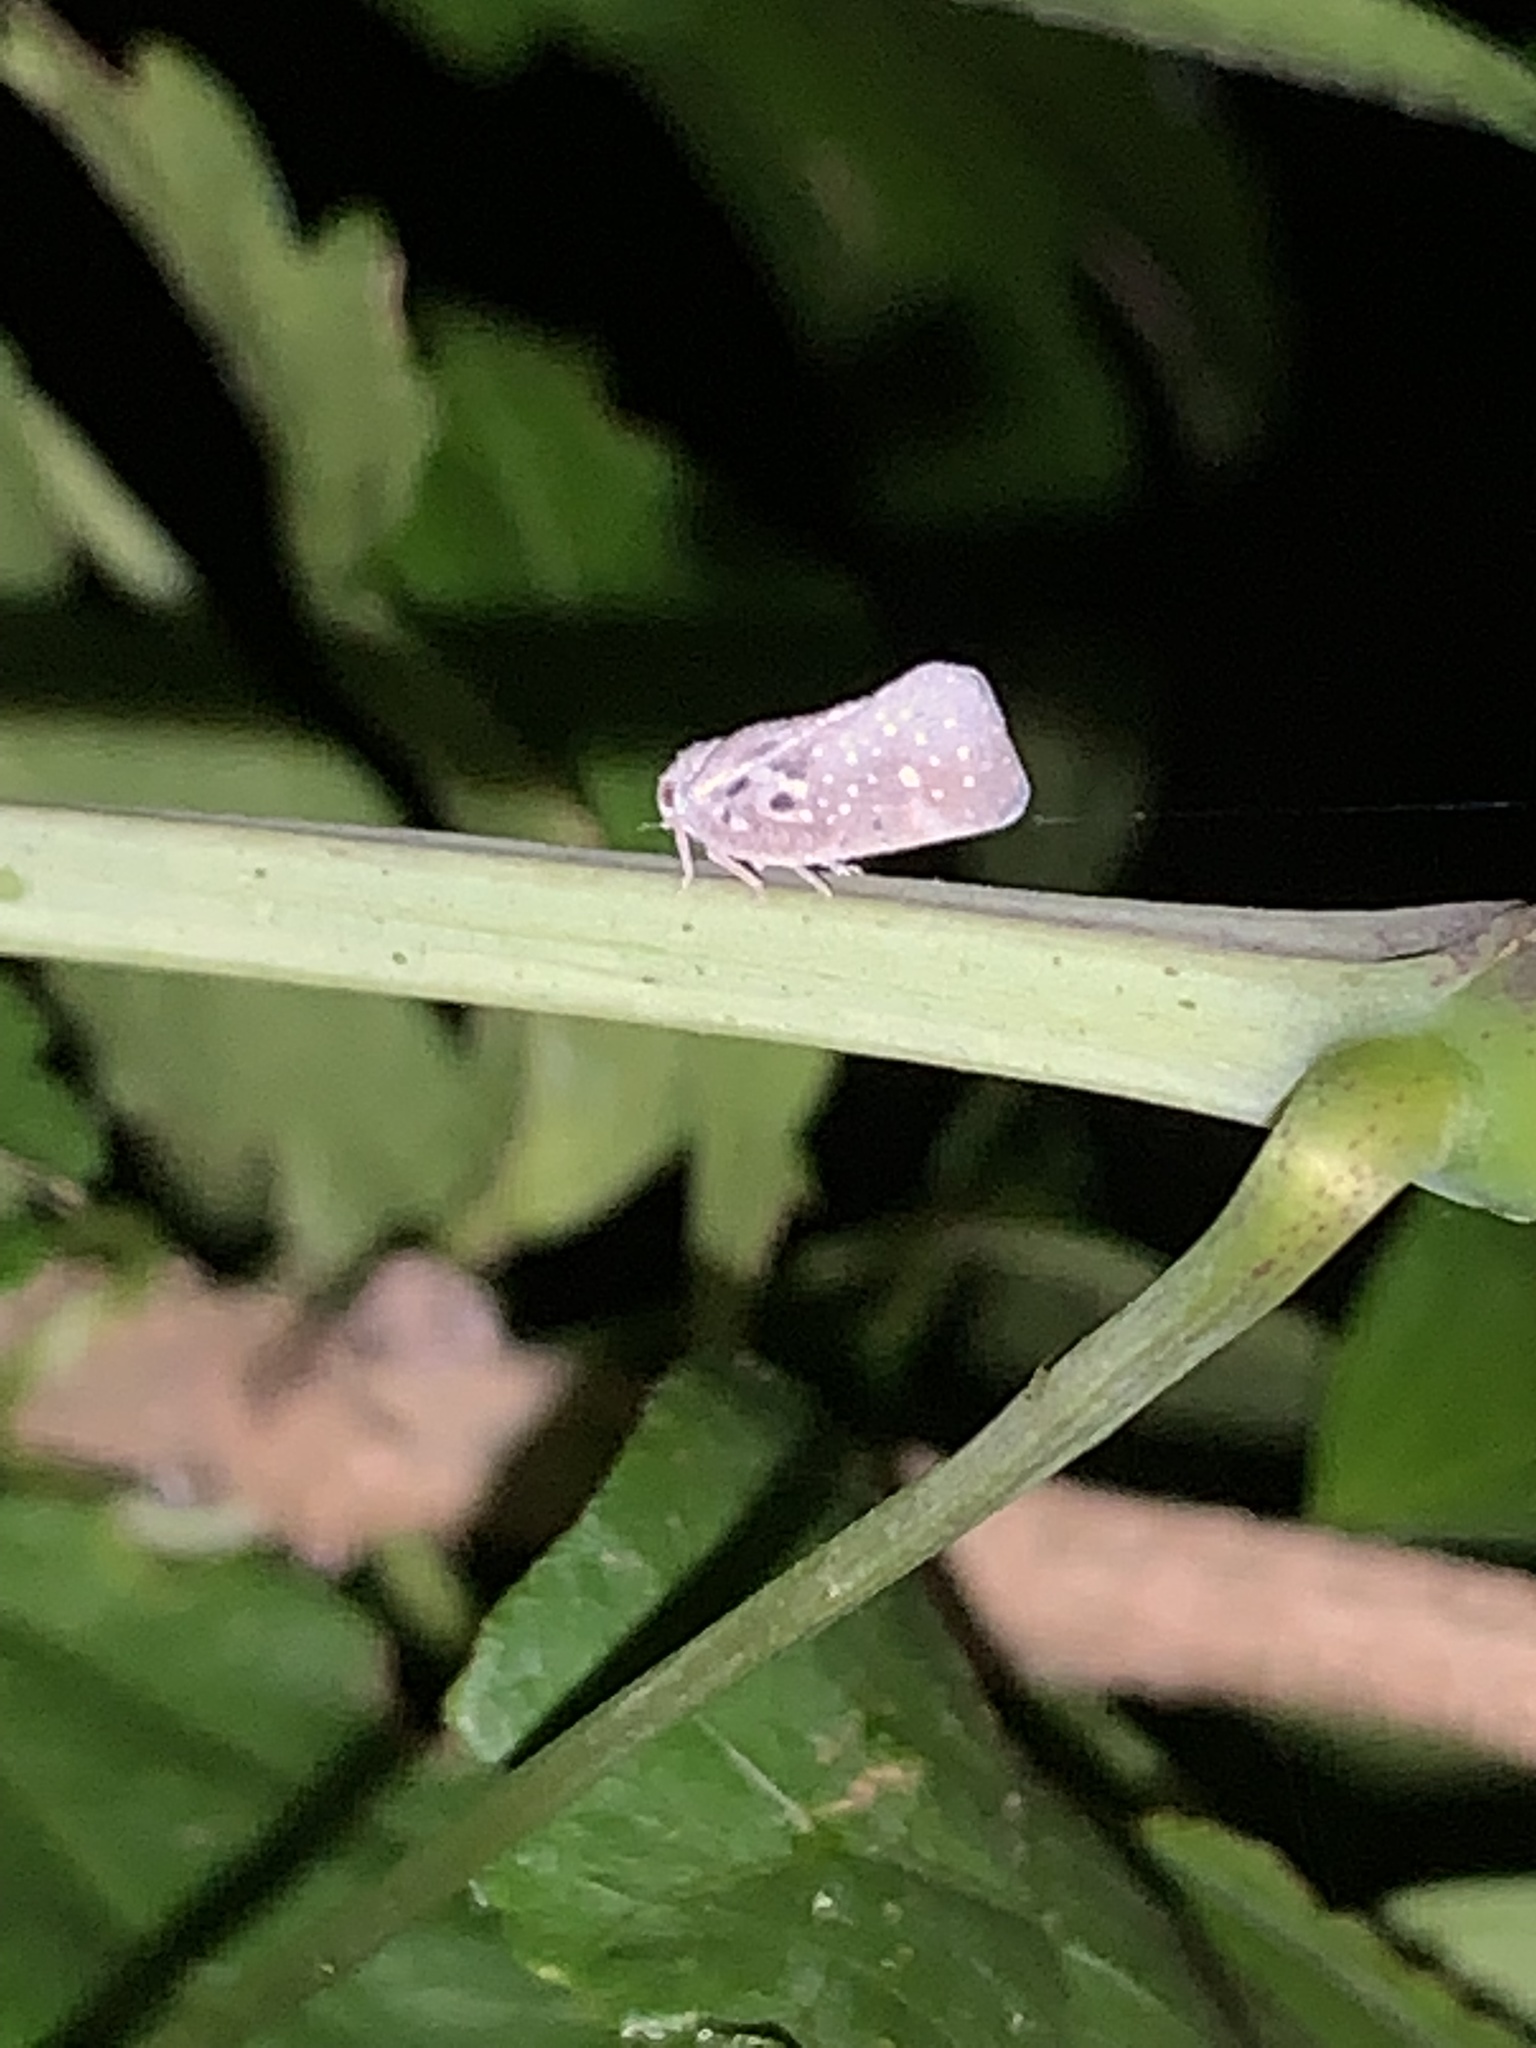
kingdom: Animalia
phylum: Arthropoda
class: Insecta
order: Hemiptera
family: Flatidae
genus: Metcalfa
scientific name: Metcalfa pruinosa
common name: Citrus flatid planthopper
